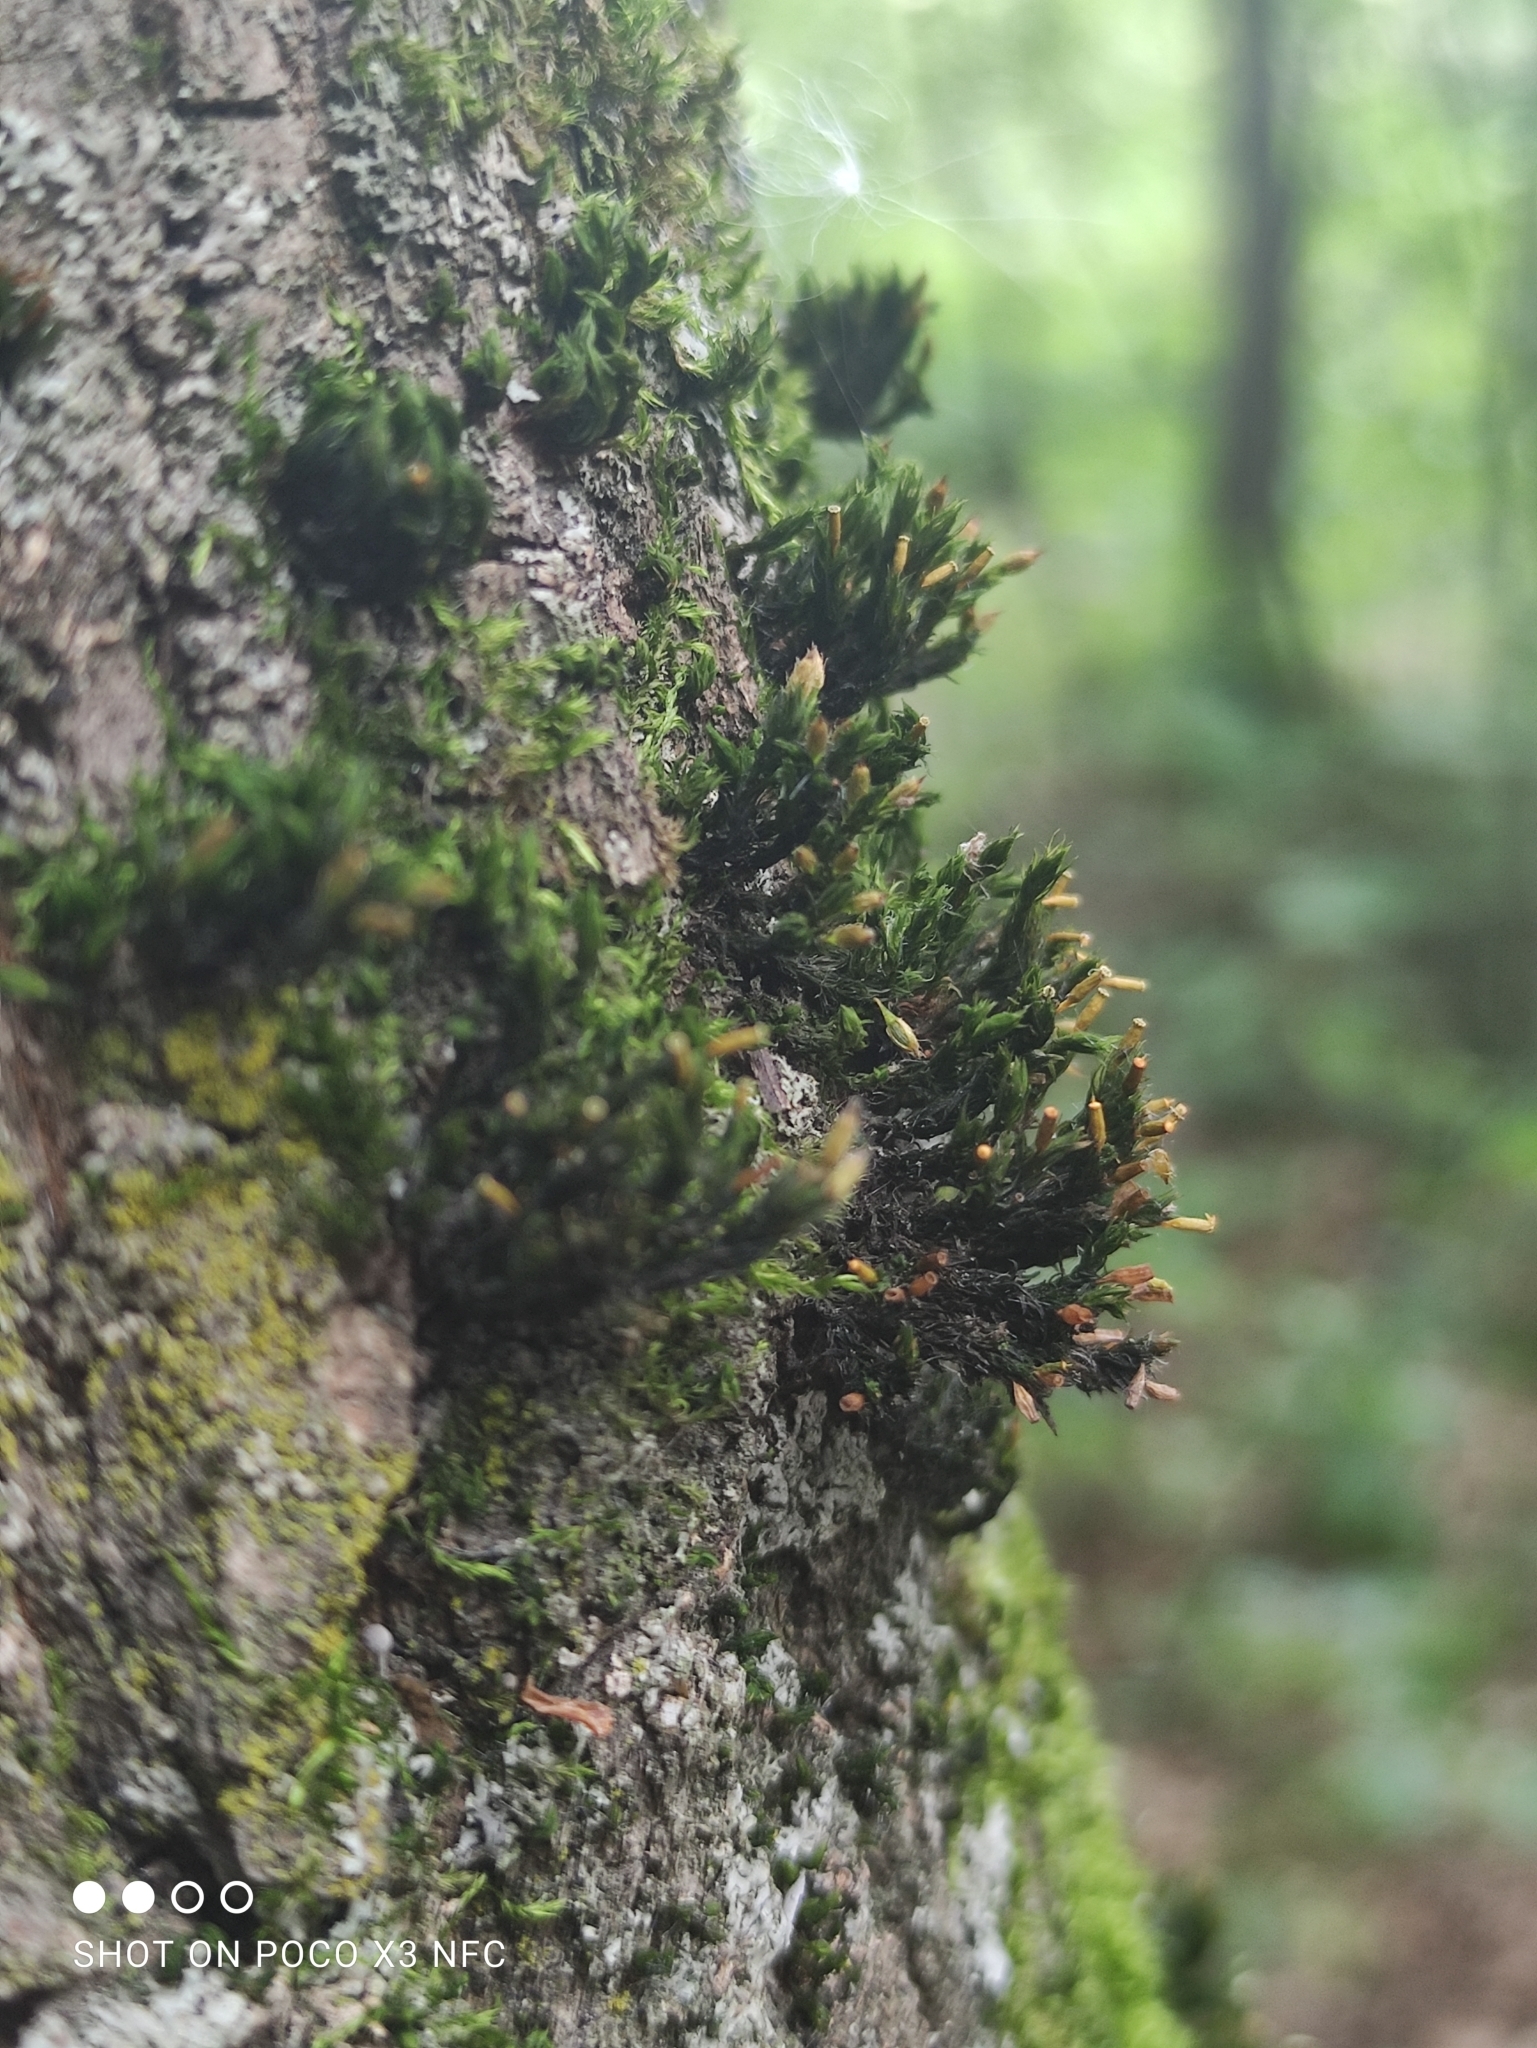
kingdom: Plantae
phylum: Bryophyta
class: Bryopsida
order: Orthotrichales
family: Orthotrichaceae
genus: Lewinskya
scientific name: Lewinskya speciosa
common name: Showy bristle moss
